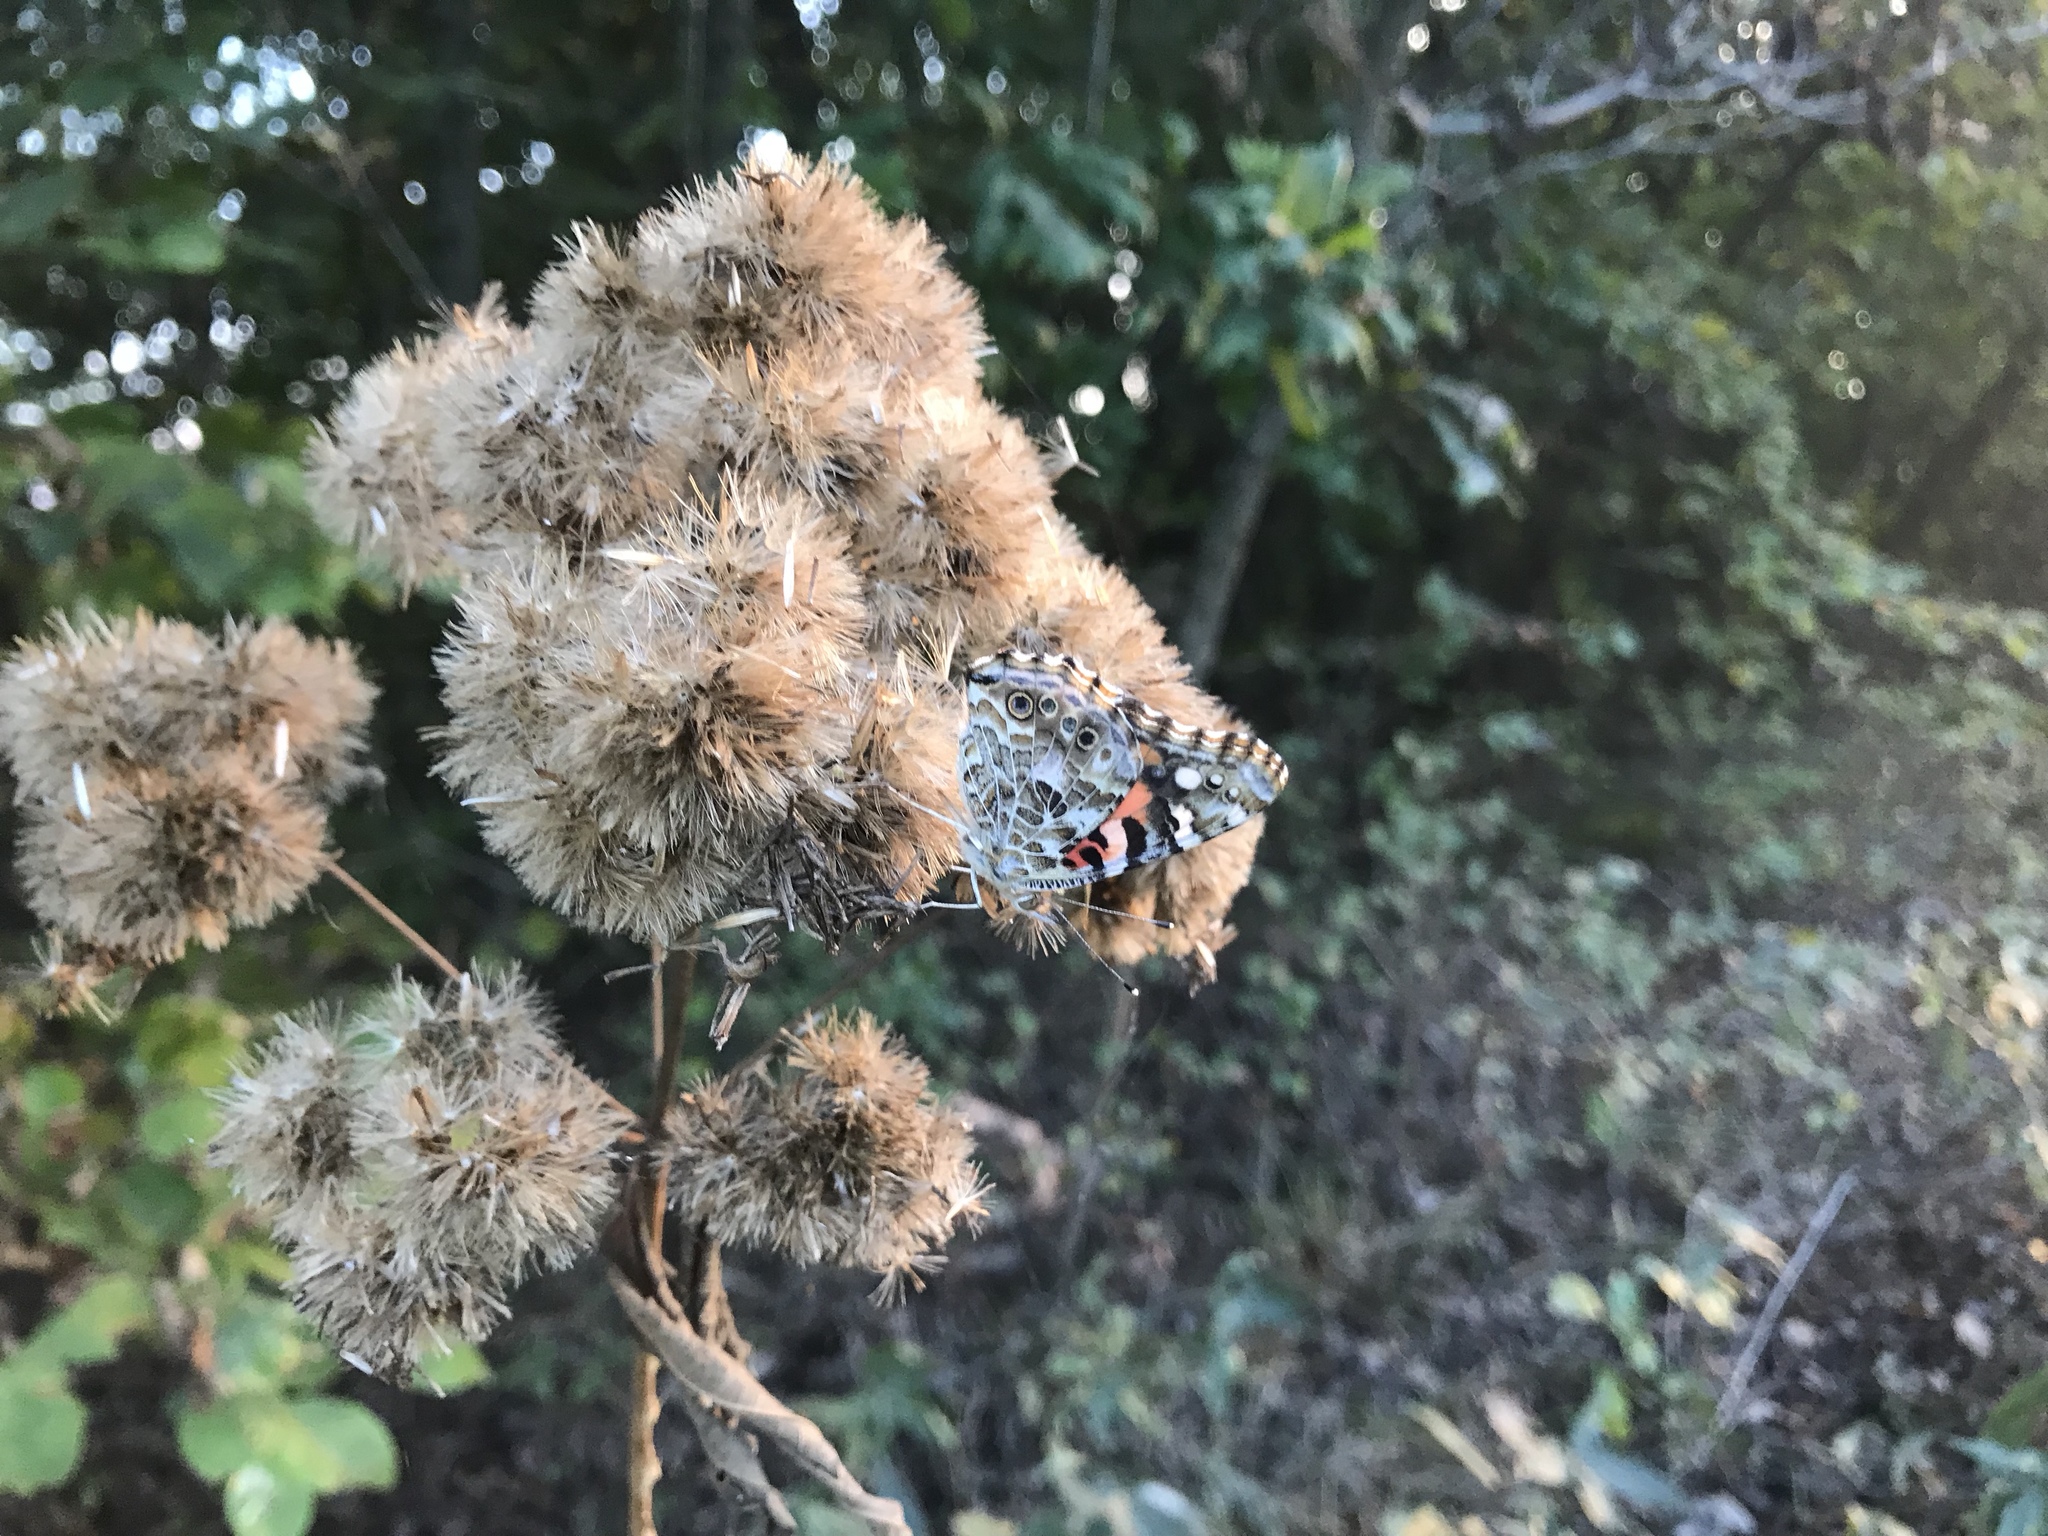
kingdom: Animalia
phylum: Arthropoda
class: Insecta
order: Lepidoptera
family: Nymphalidae
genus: Vanessa
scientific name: Vanessa cardui
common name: Painted lady
